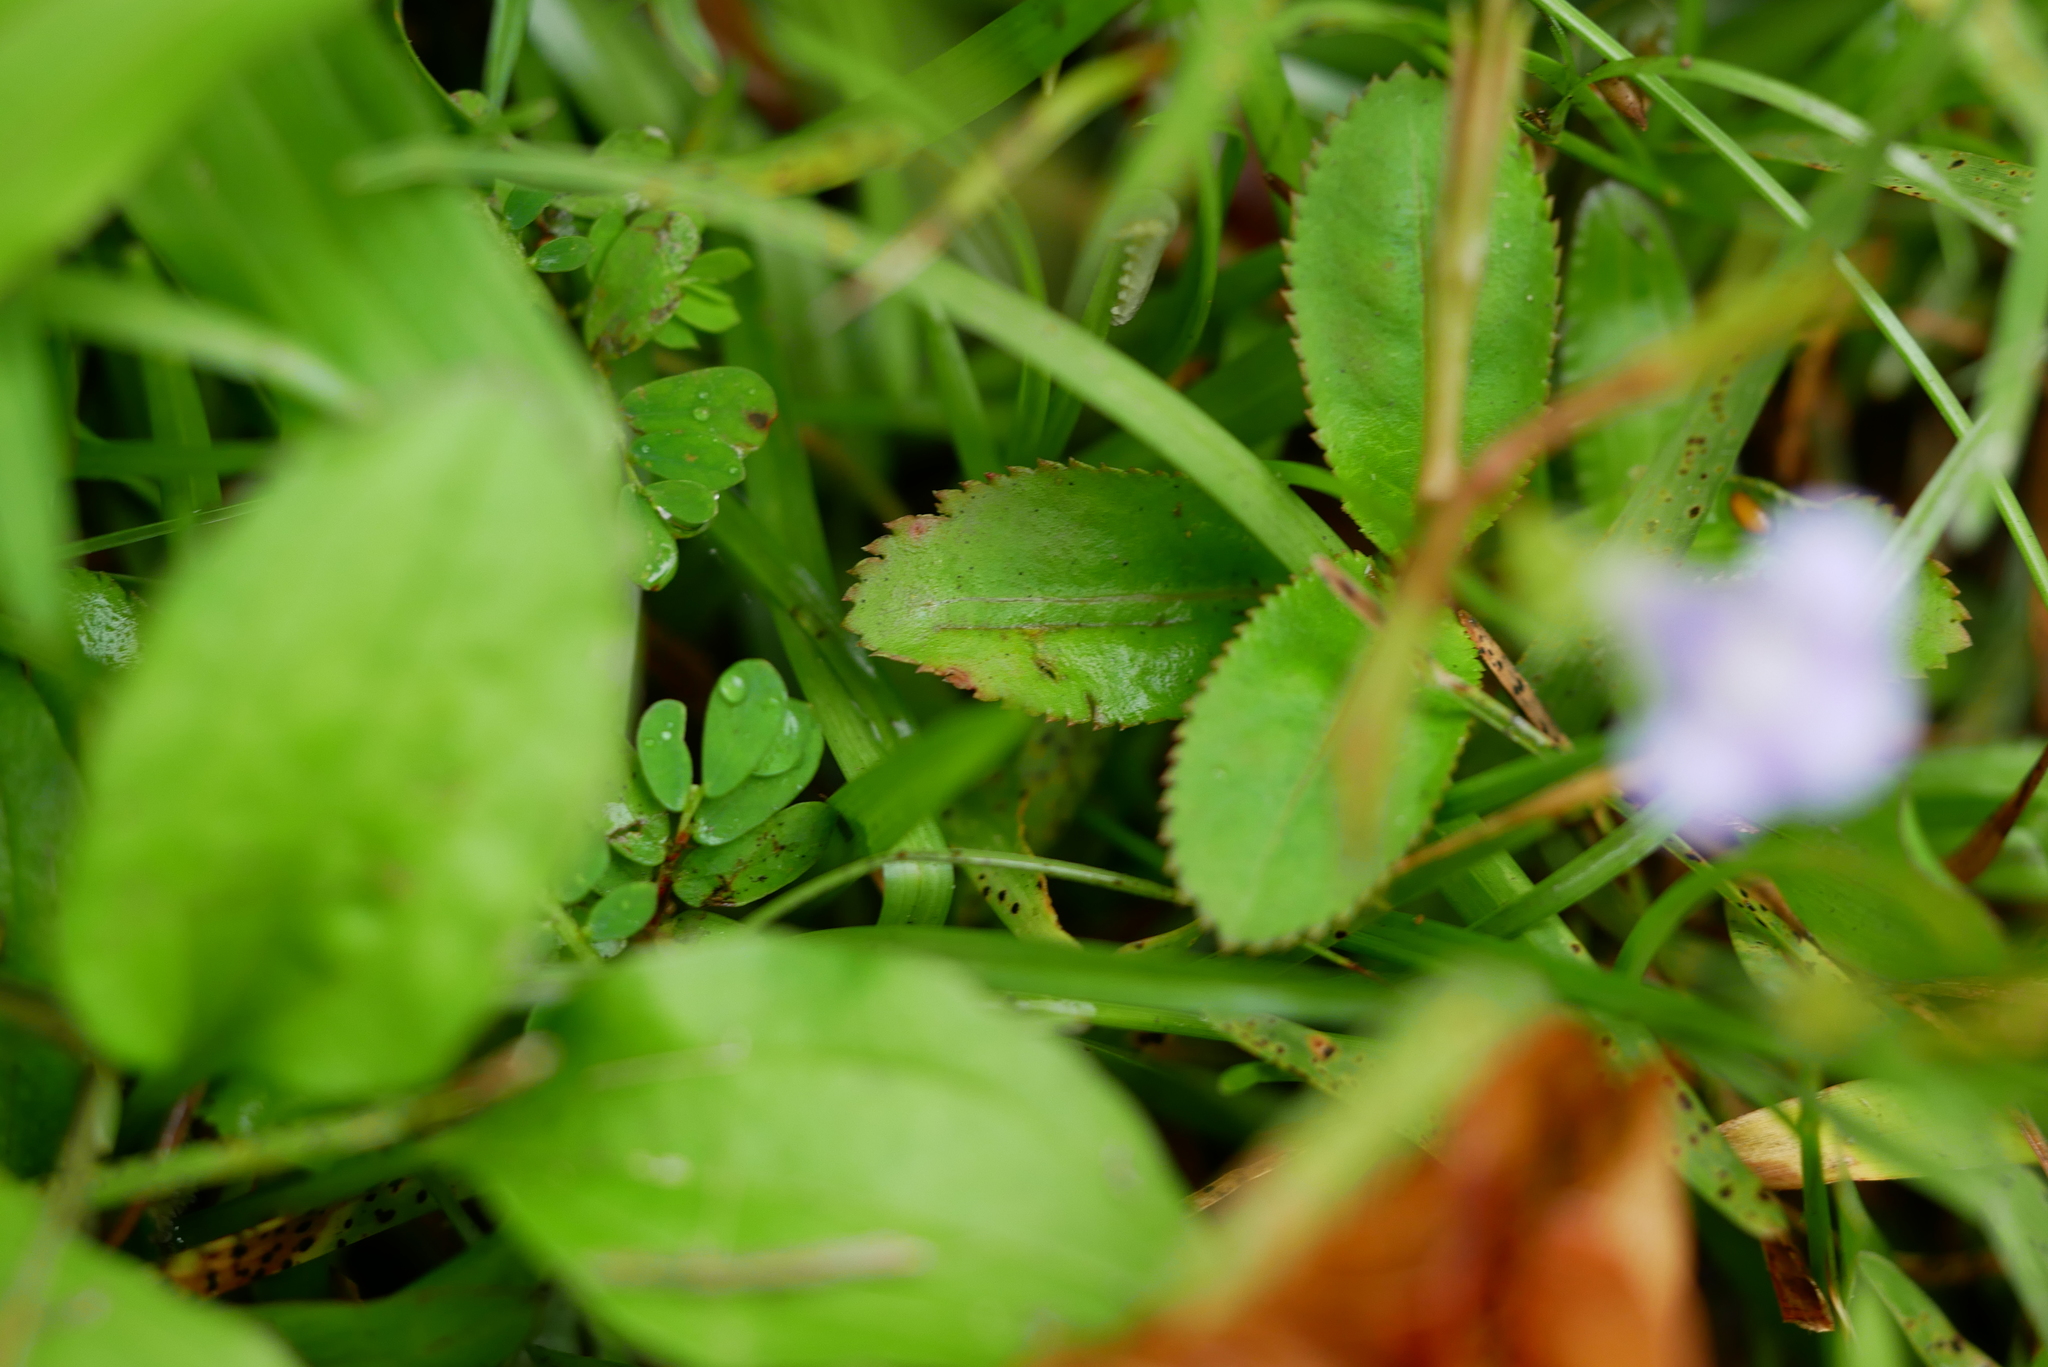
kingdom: Plantae
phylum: Tracheophyta
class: Magnoliopsida
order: Lamiales
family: Linderniaceae
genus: Bonnaya
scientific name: Bonnaya ruelloides
